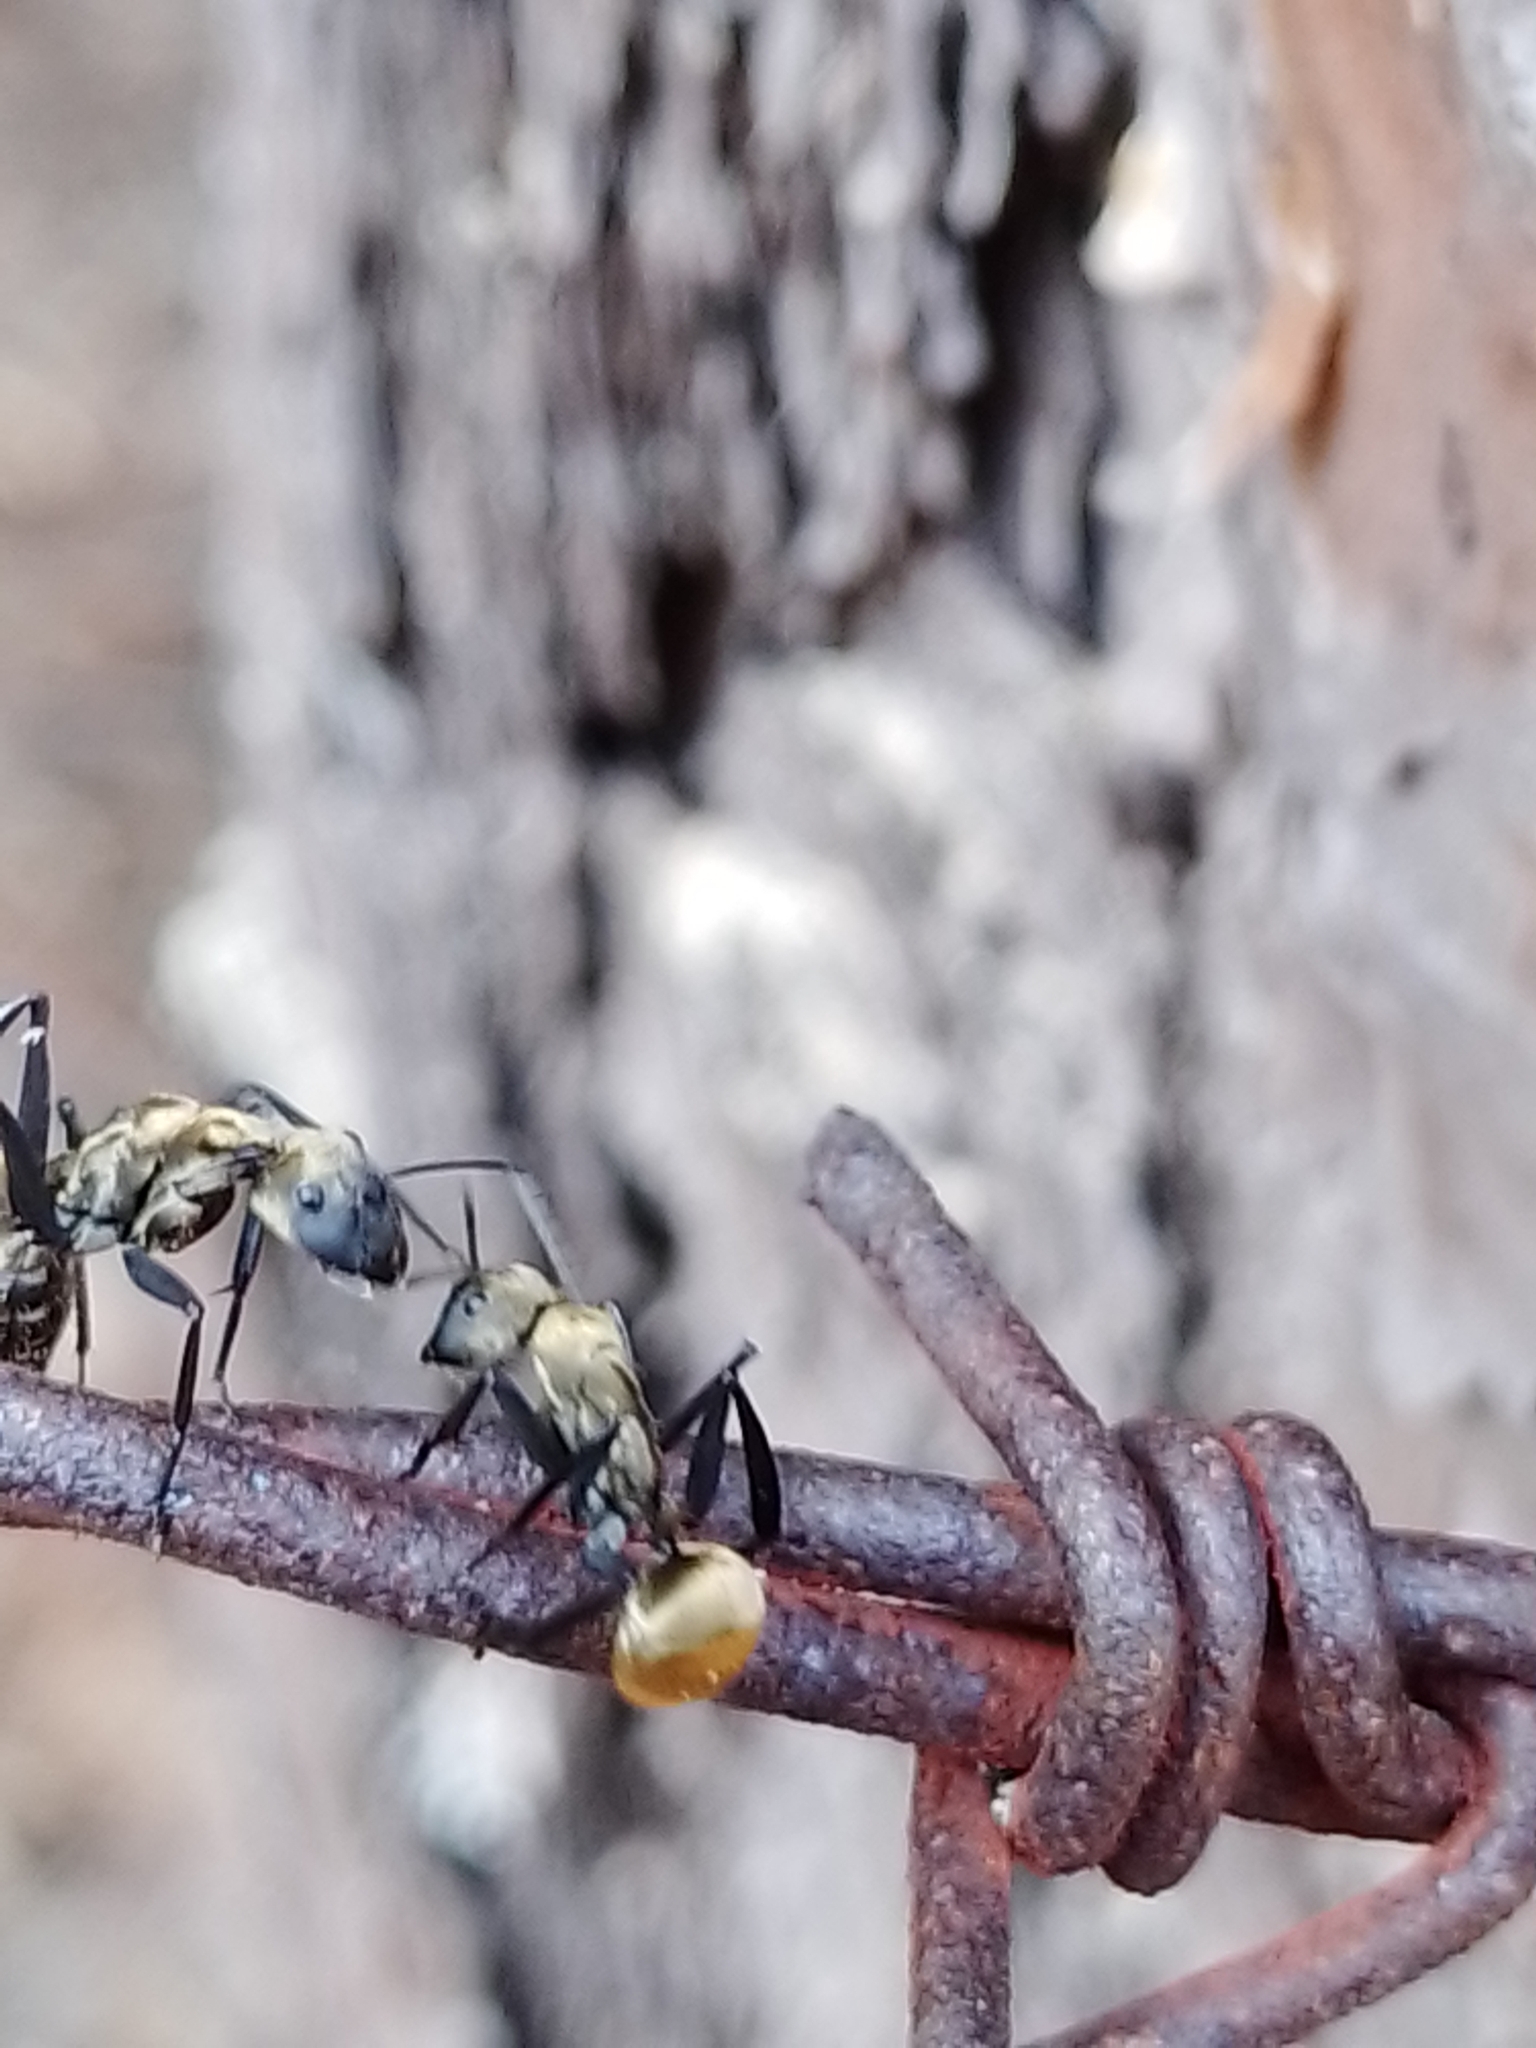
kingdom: Animalia
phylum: Arthropoda
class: Insecta
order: Hymenoptera
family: Formicidae
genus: Camponotus
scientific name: Camponotus sericeiventris
